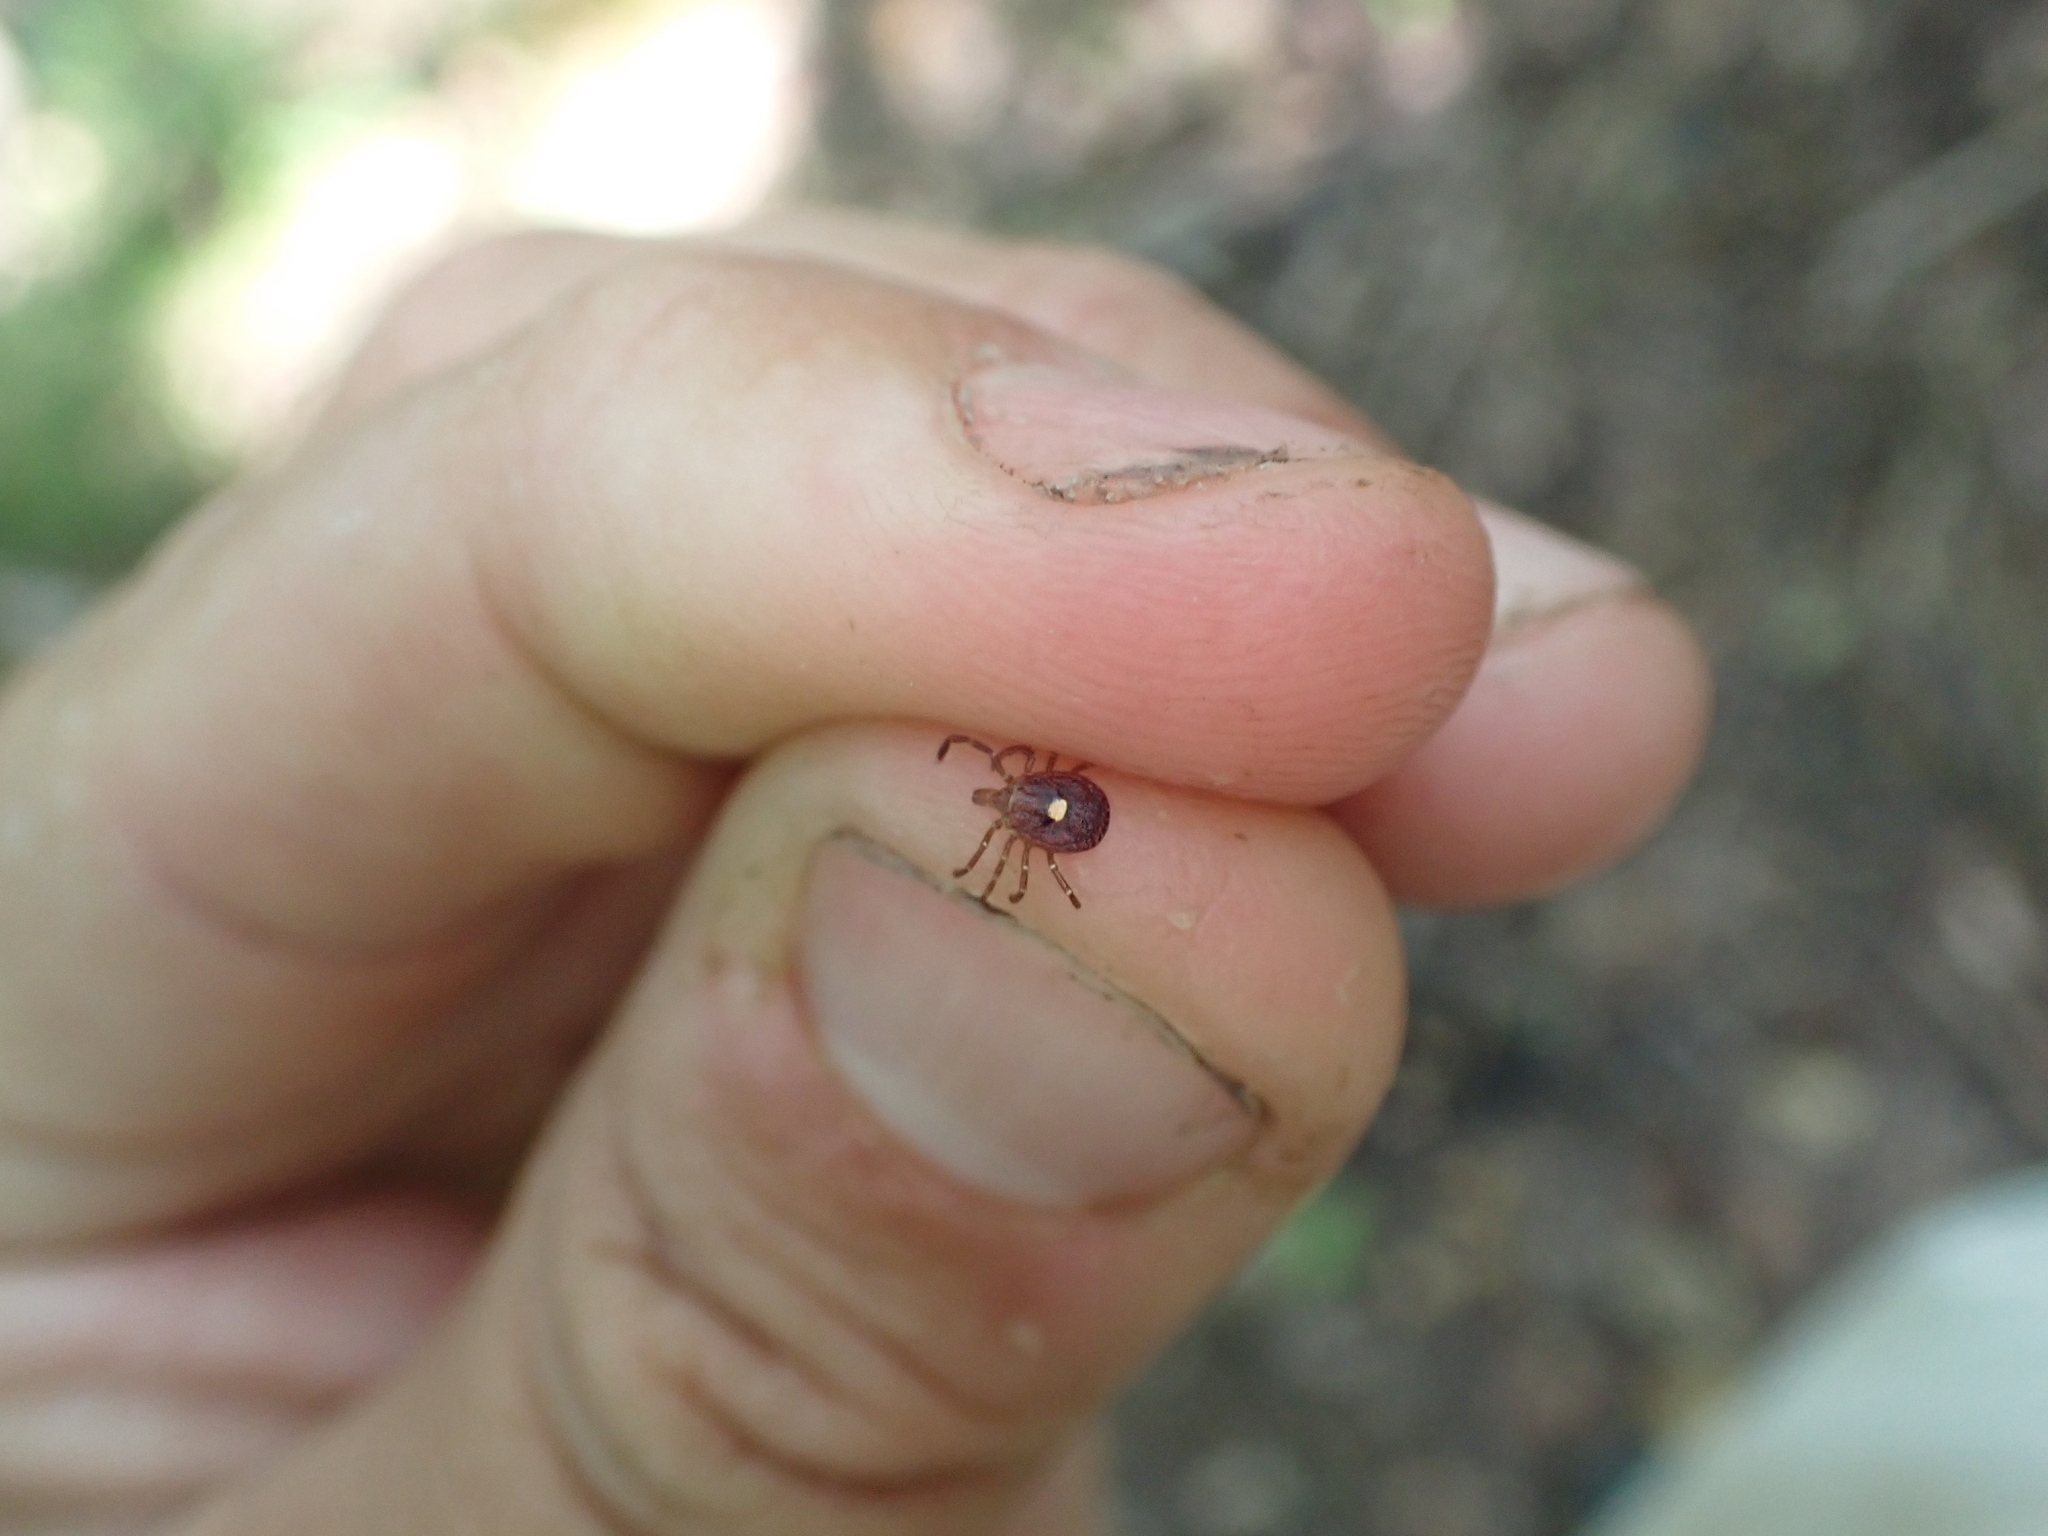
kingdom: Animalia
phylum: Arthropoda
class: Arachnida
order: Ixodida
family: Ixodidae
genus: Amblyomma
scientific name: Amblyomma americanum
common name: Lone star tick
